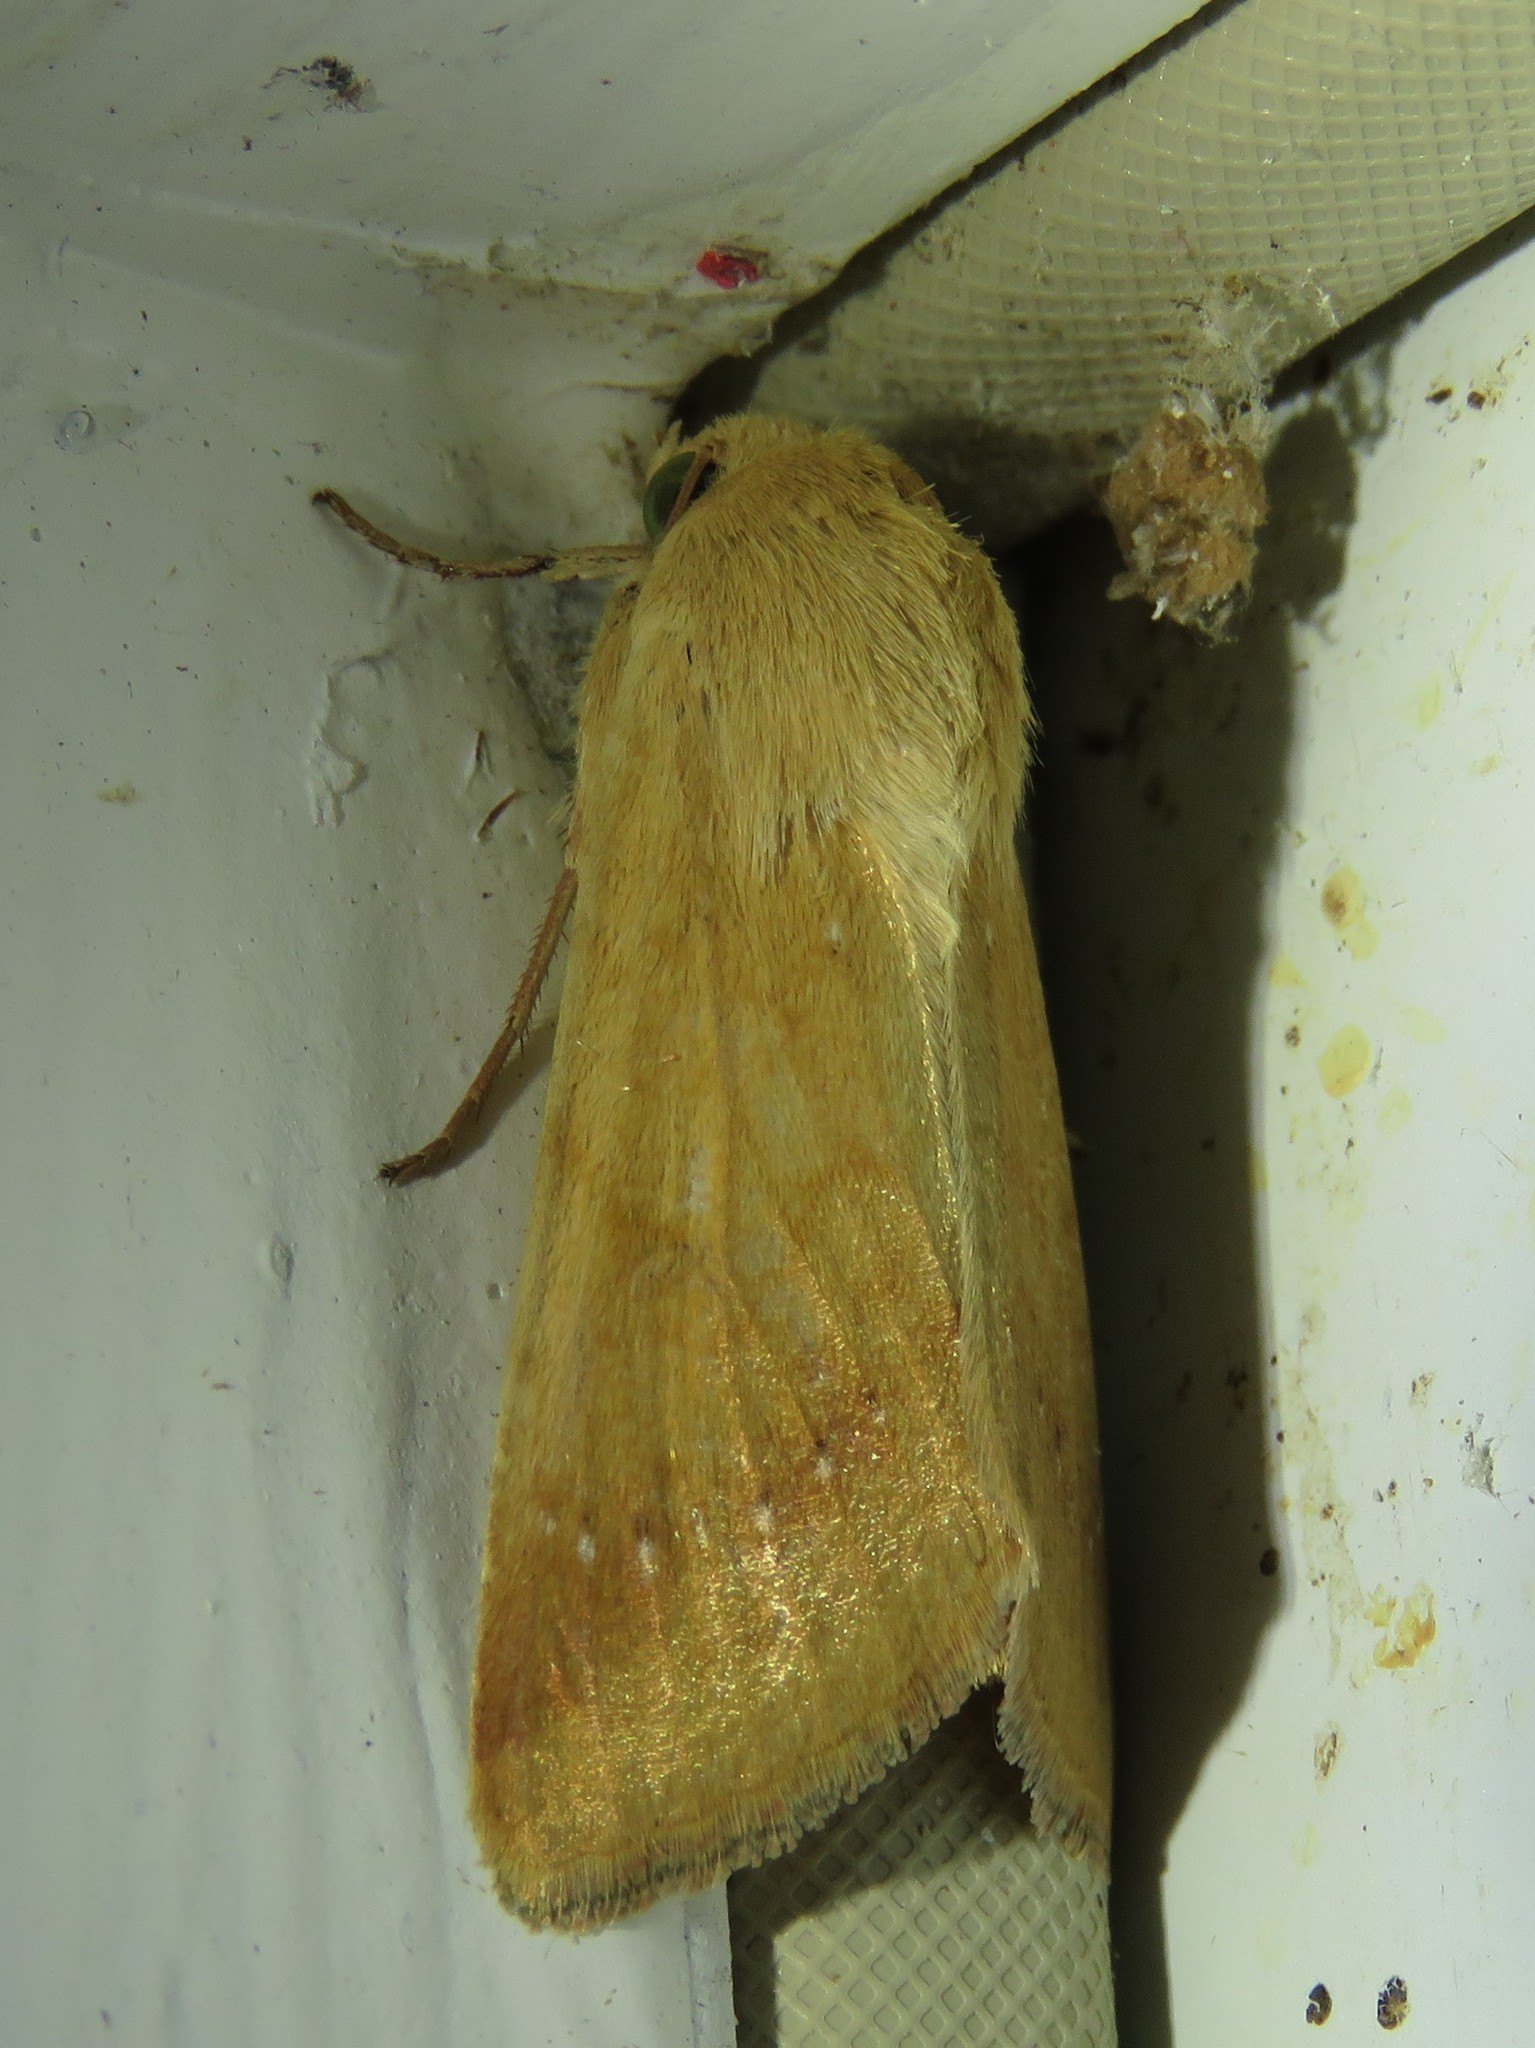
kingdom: Animalia
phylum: Arthropoda
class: Insecta
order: Lepidoptera
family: Noctuidae
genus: Helicoverpa
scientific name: Helicoverpa zea
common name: Bollworm
